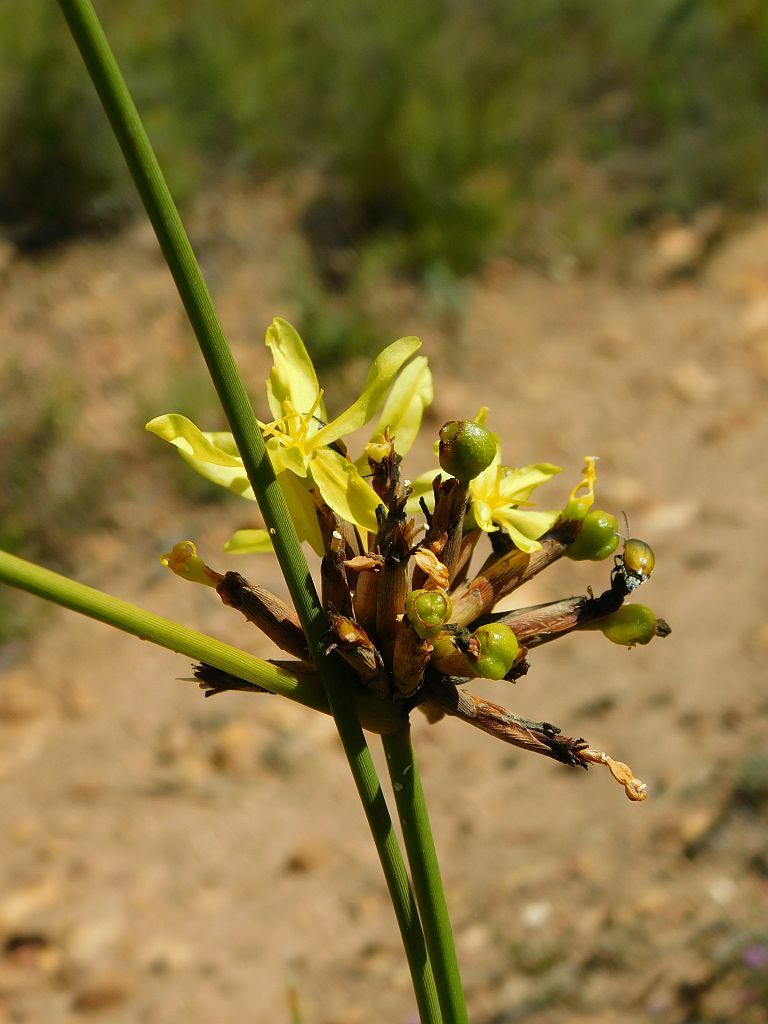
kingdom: Plantae
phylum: Tracheophyta
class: Liliopsida
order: Asparagales
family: Iridaceae
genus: Bobartia
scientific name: Bobartia indica
